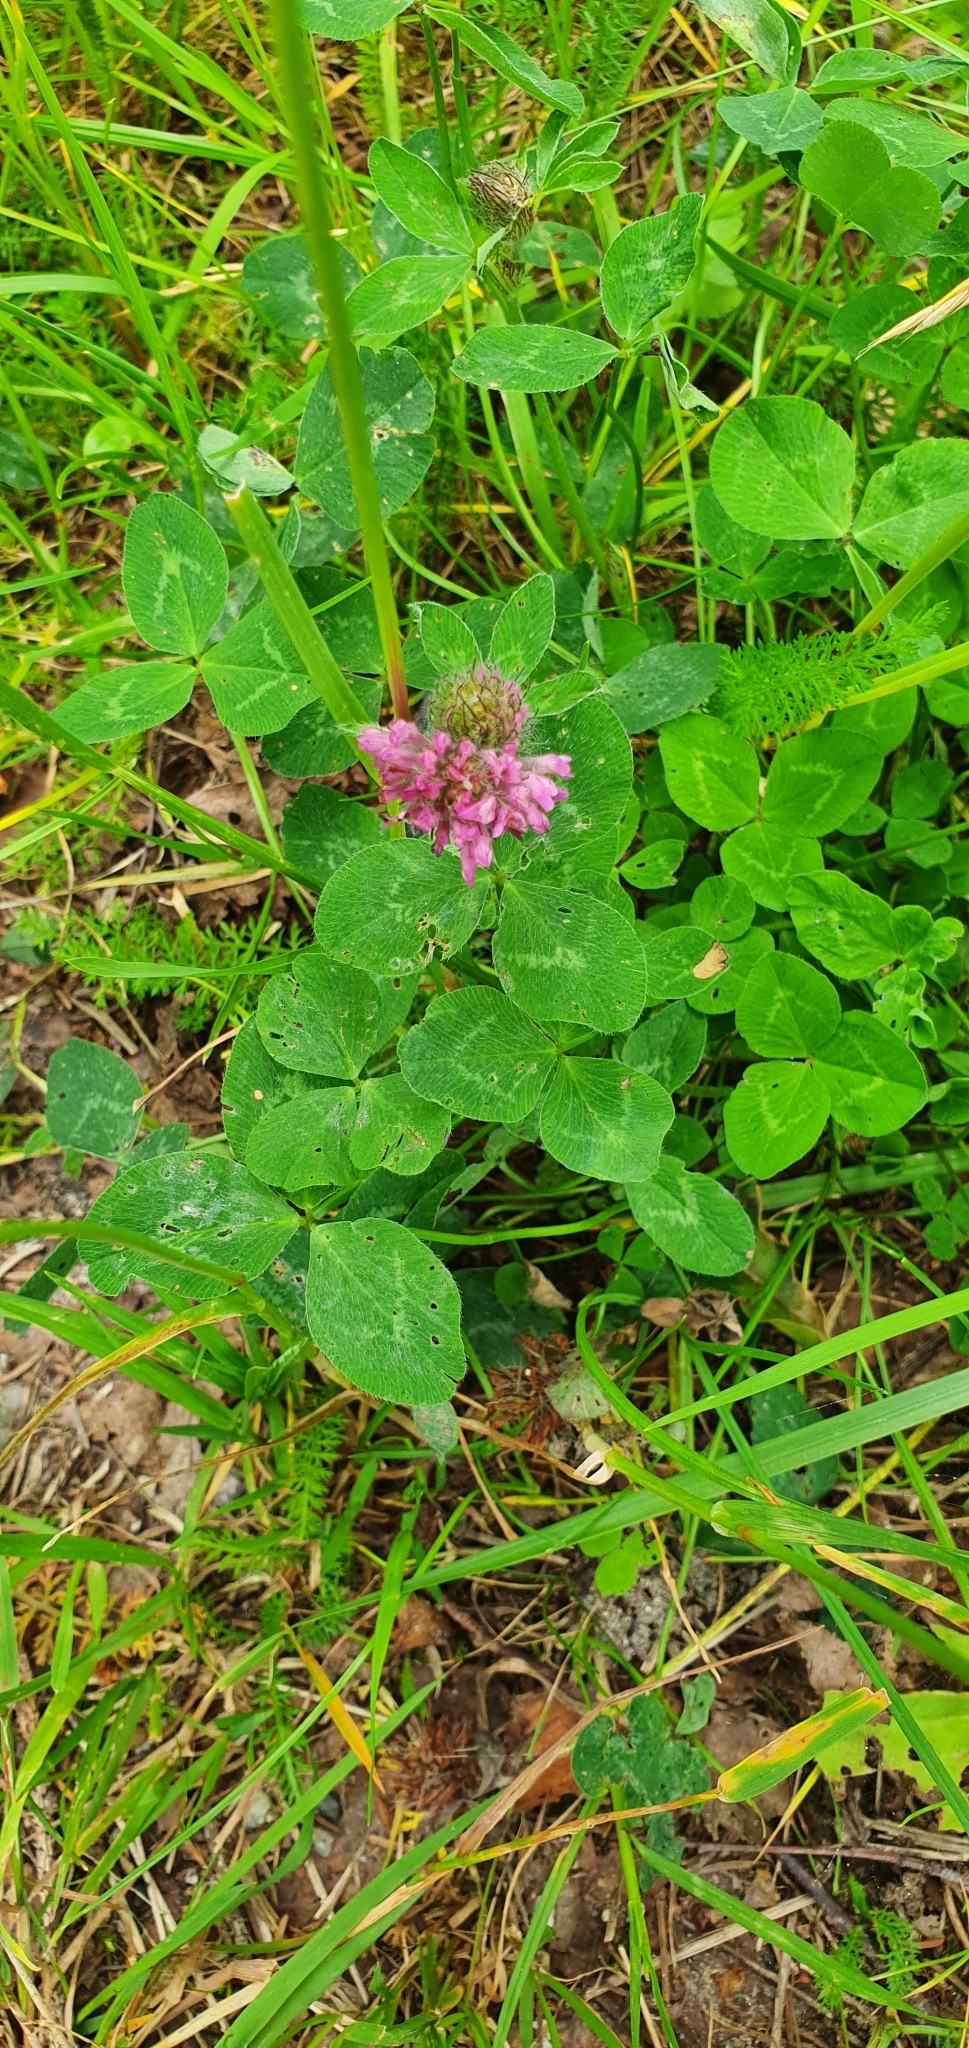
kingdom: Plantae
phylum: Tracheophyta
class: Magnoliopsida
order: Fabales
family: Fabaceae
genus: Trifolium
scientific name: Trifolium pratense
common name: Red clover
